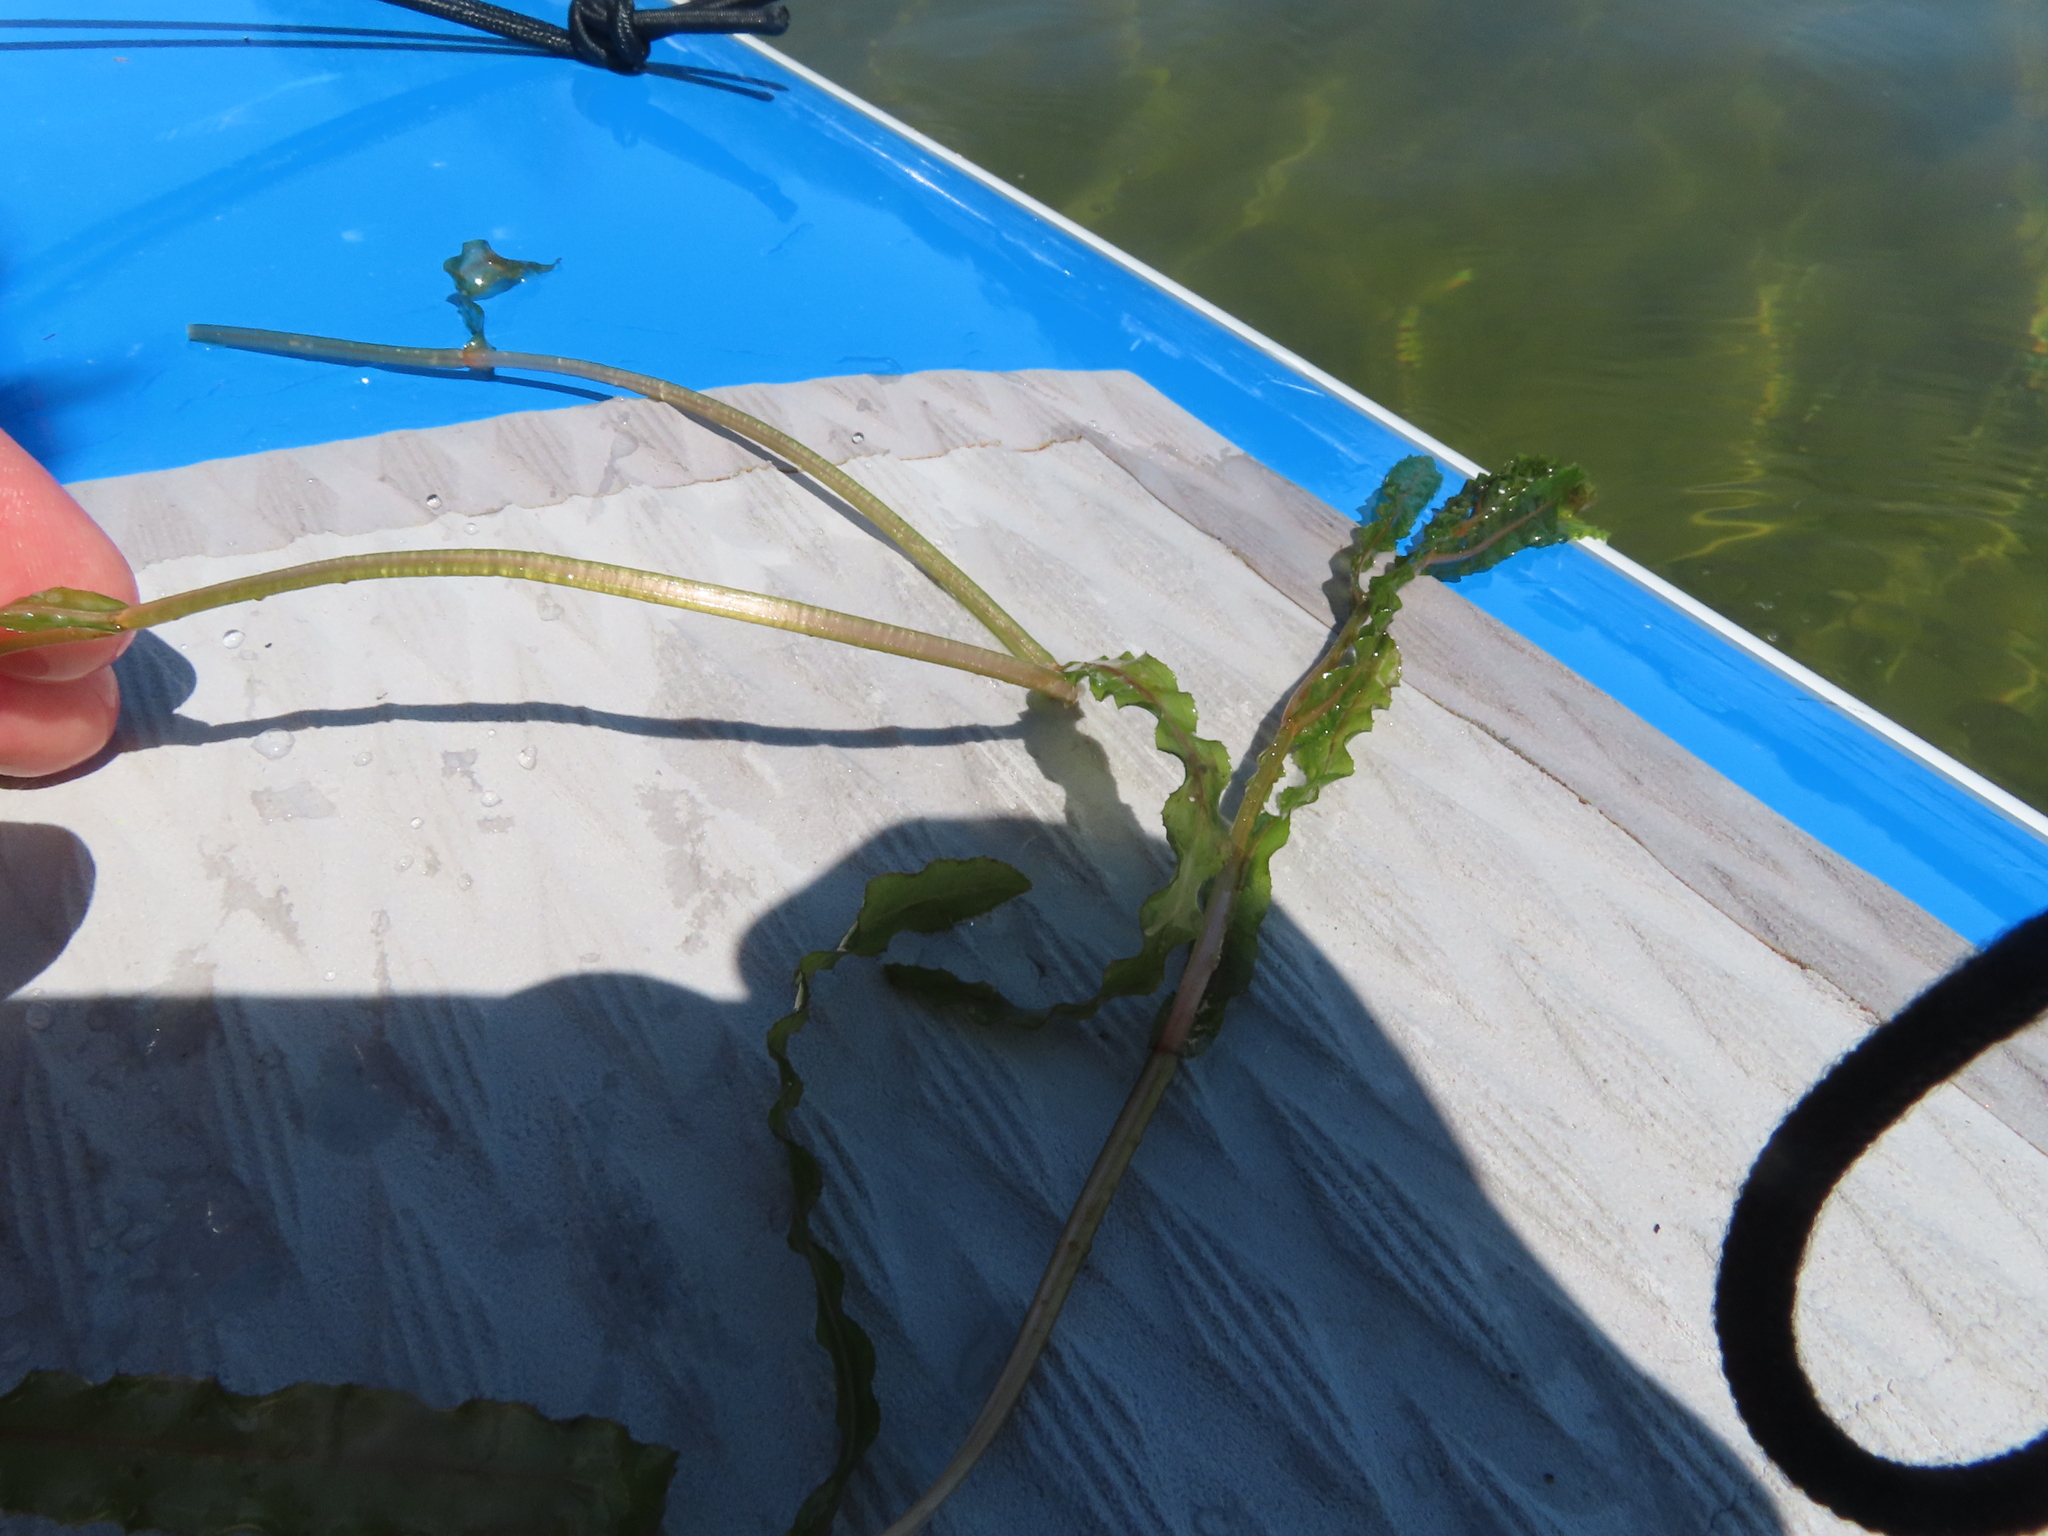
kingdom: Plantae
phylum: Tracheophyta
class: Liliopsida
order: Alismatales
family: Potamogetonaceae
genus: Potamogeton
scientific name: Potamogeton crispus
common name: Curled pondweed
